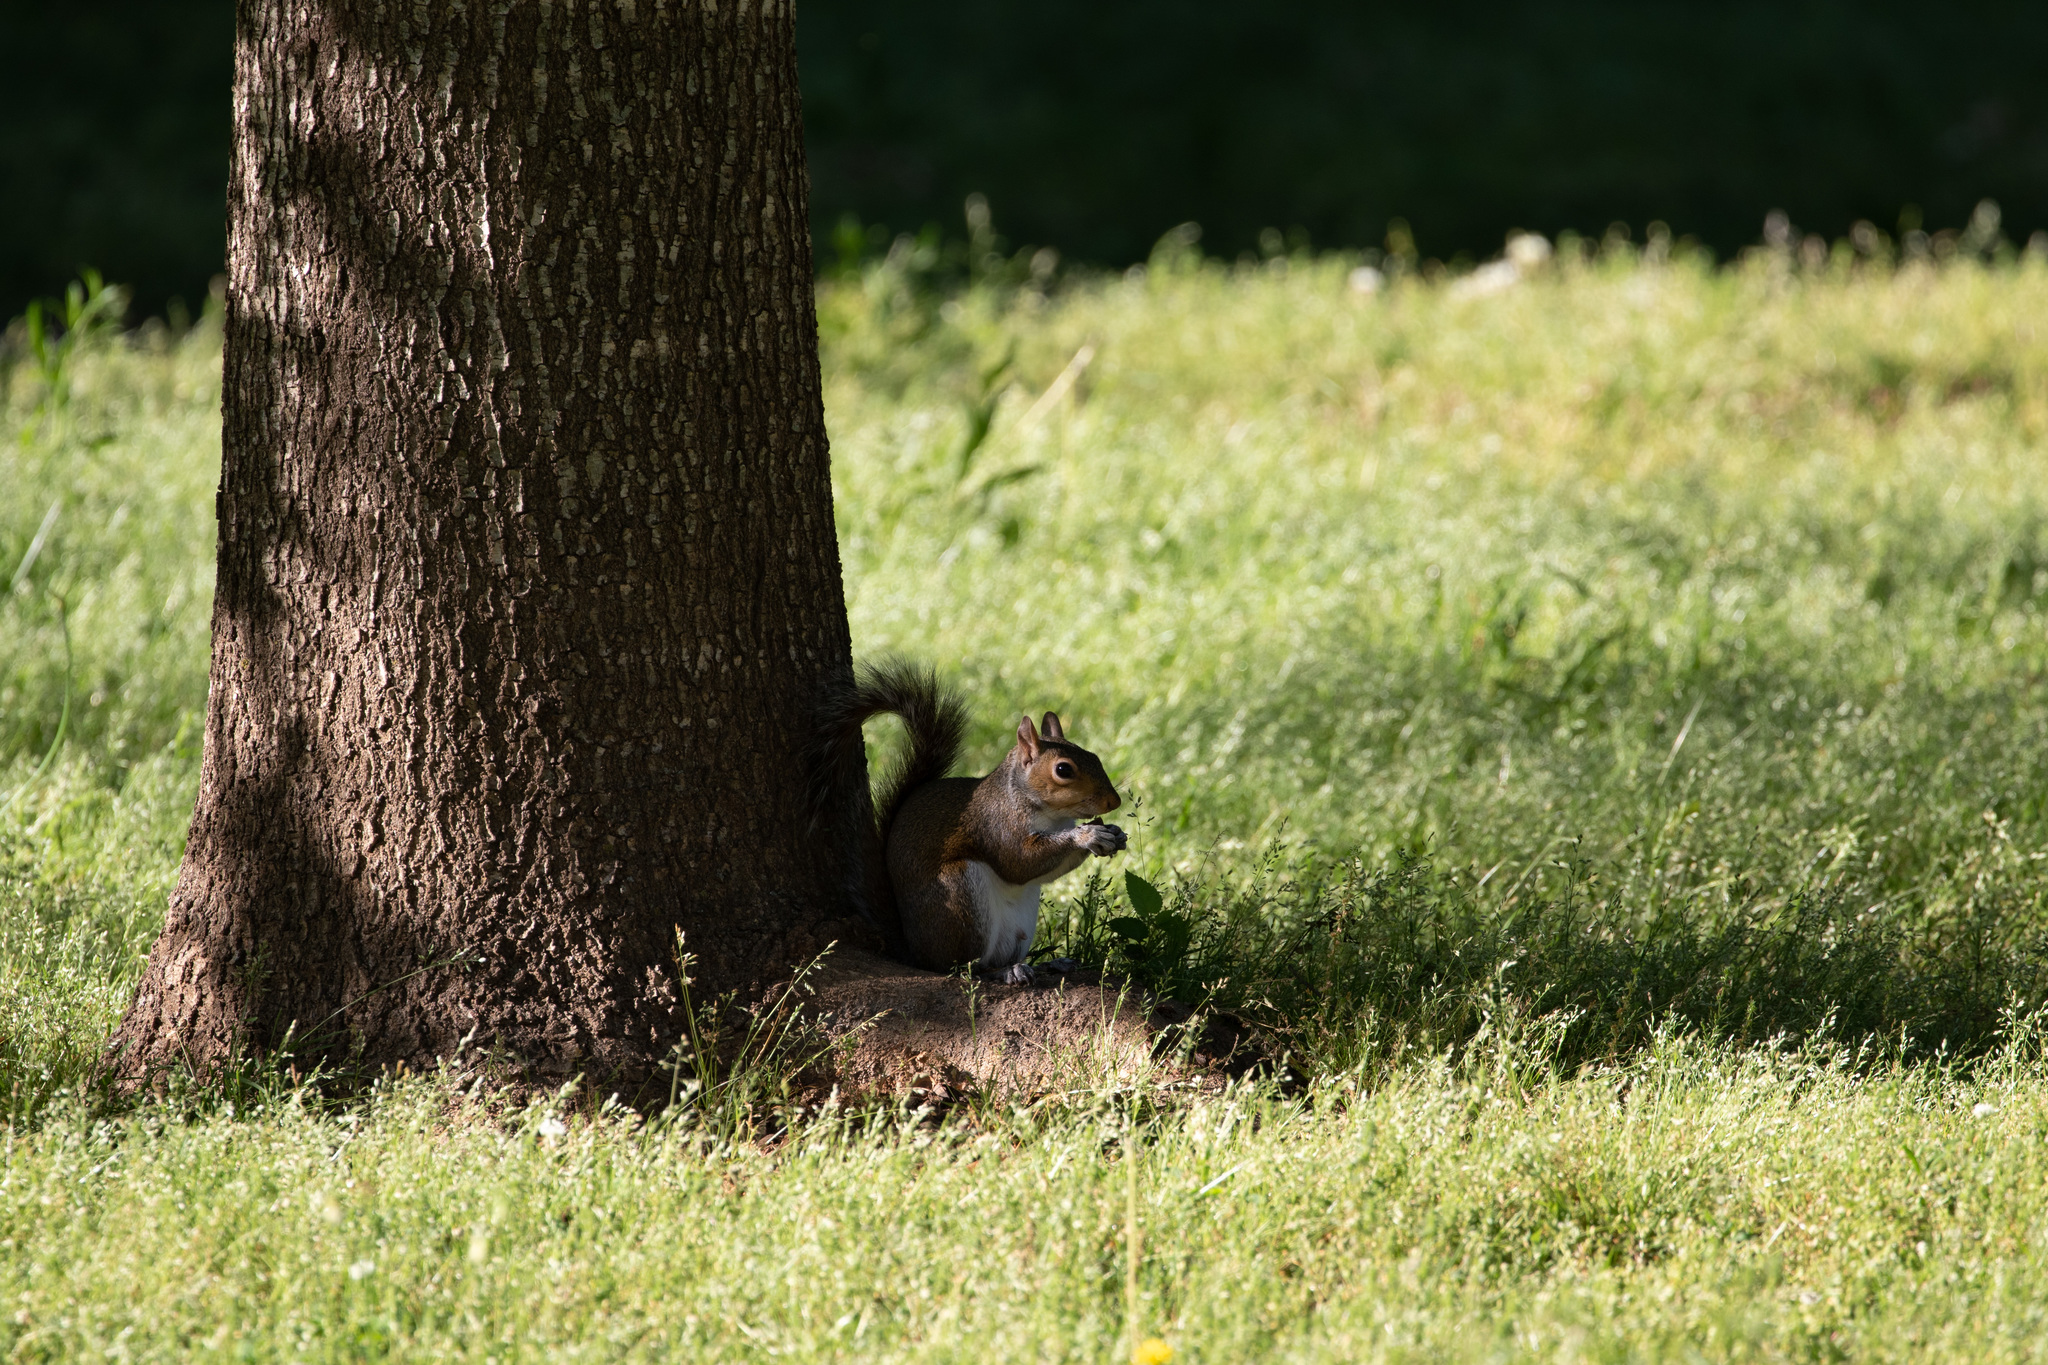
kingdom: Animalia
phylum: Chordata
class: Mammalia
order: Rodentia
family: Sciuridae
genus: Sciurus
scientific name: Sciurus carolinensis
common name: Eastern gray squirrel
